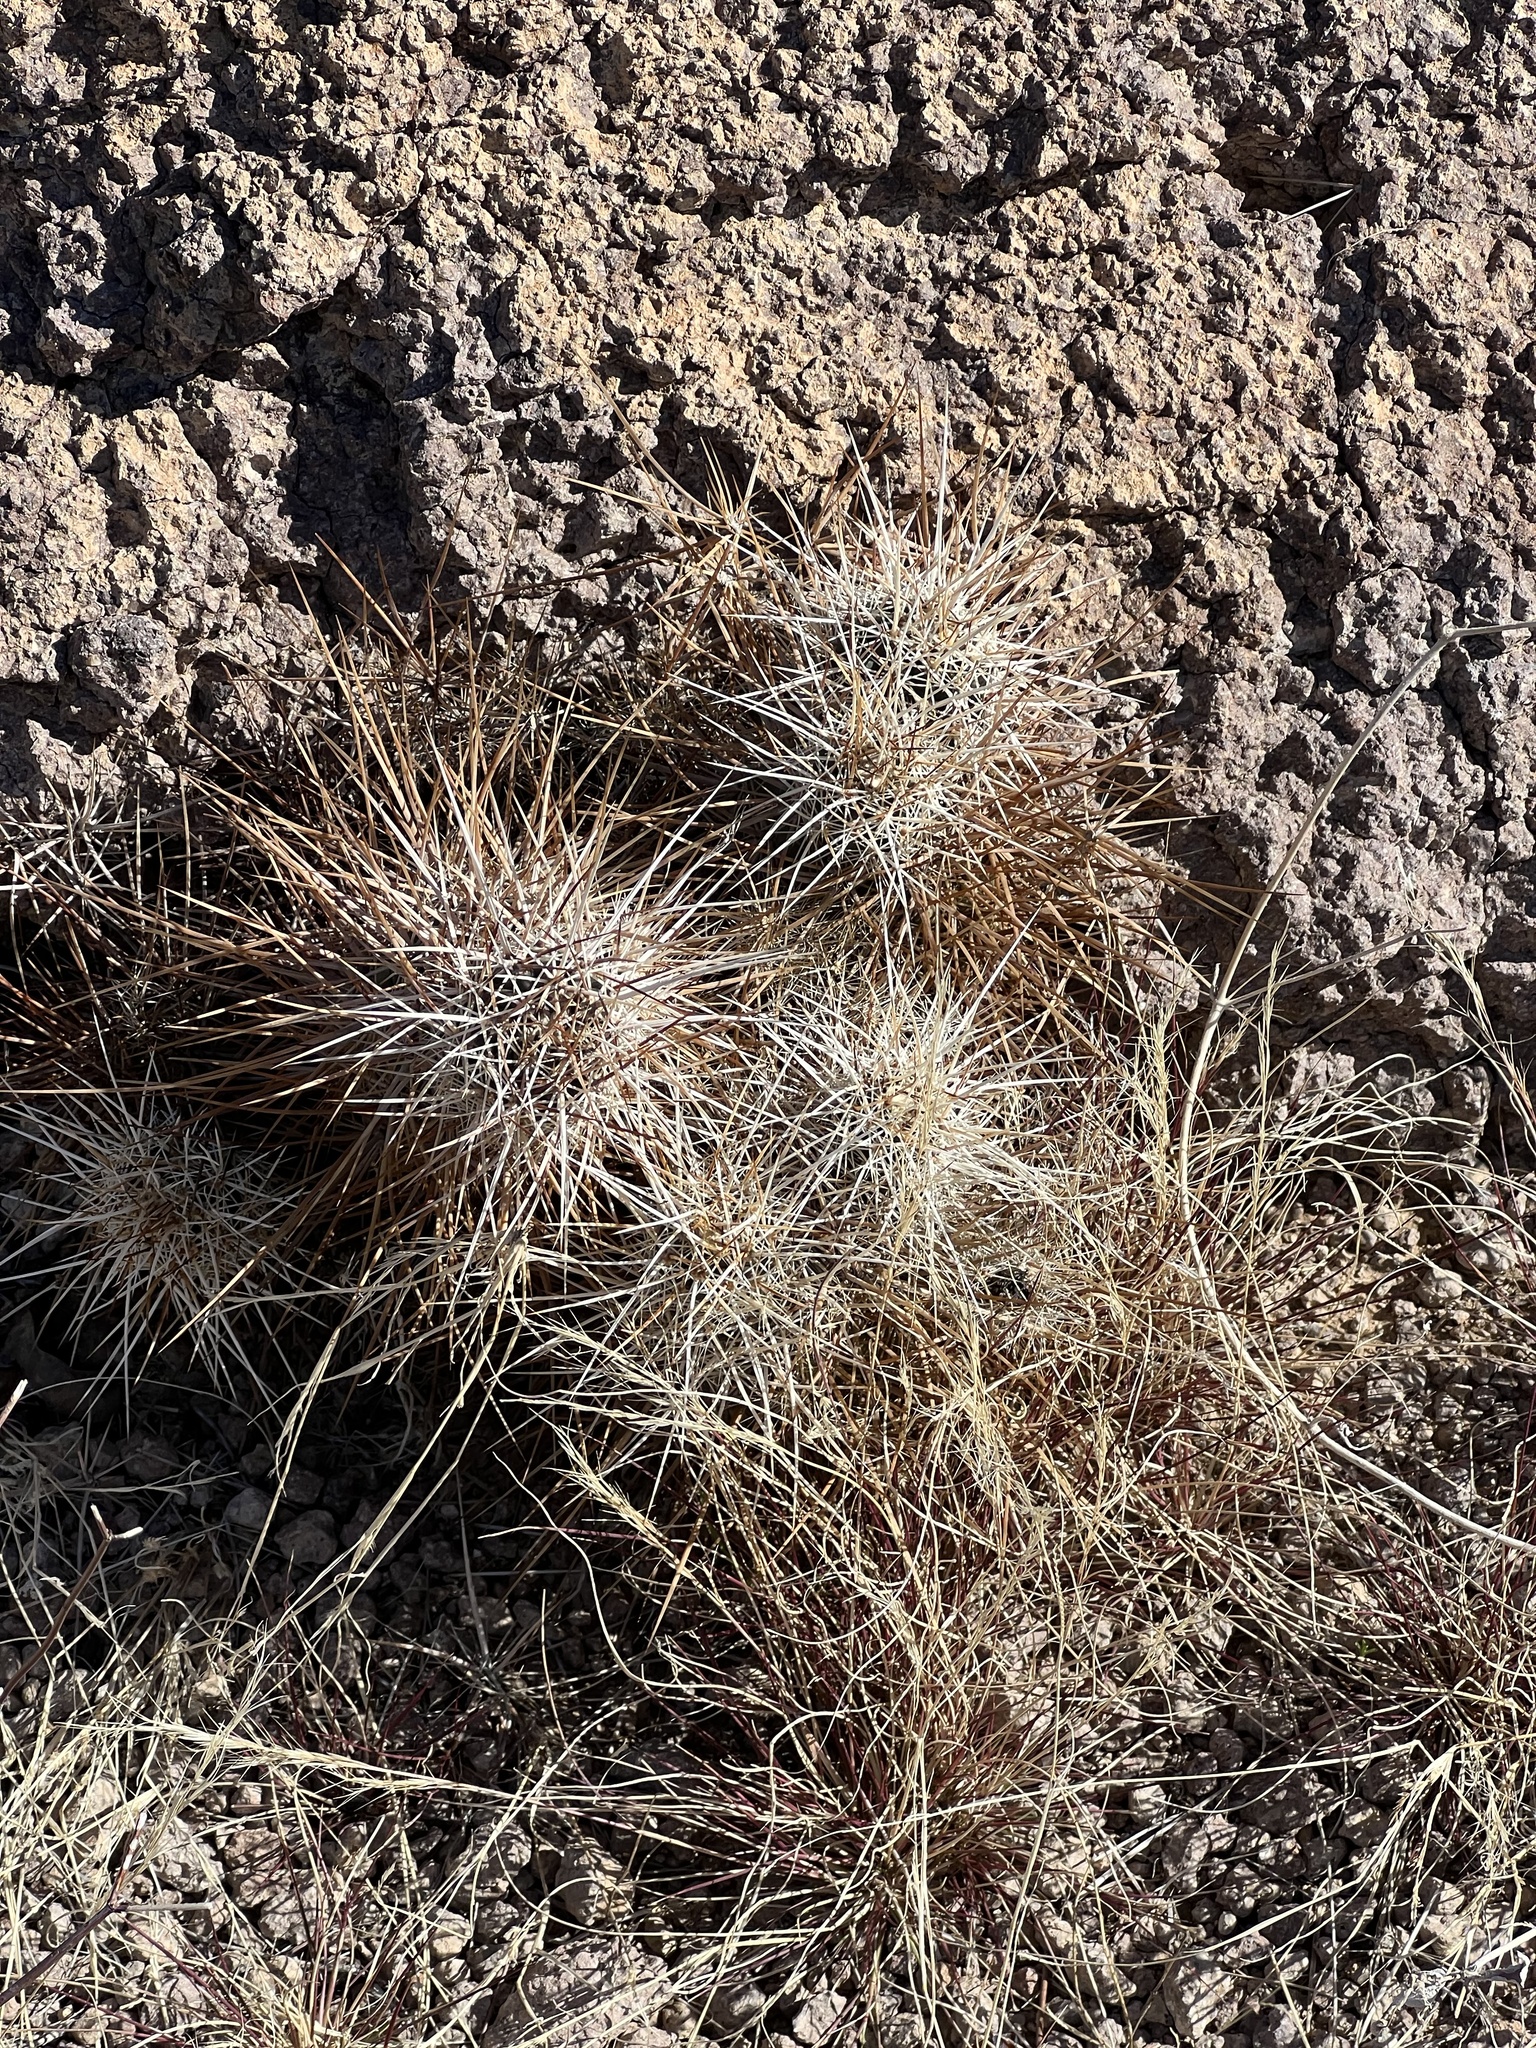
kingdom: Plantae
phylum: Tracheophyta
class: Magnoliopsida
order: Caryophyllales
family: Cactaceae
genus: Echinocereus
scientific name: Echinocereus engelmannii
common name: Engelmann's hedgehog cactus
